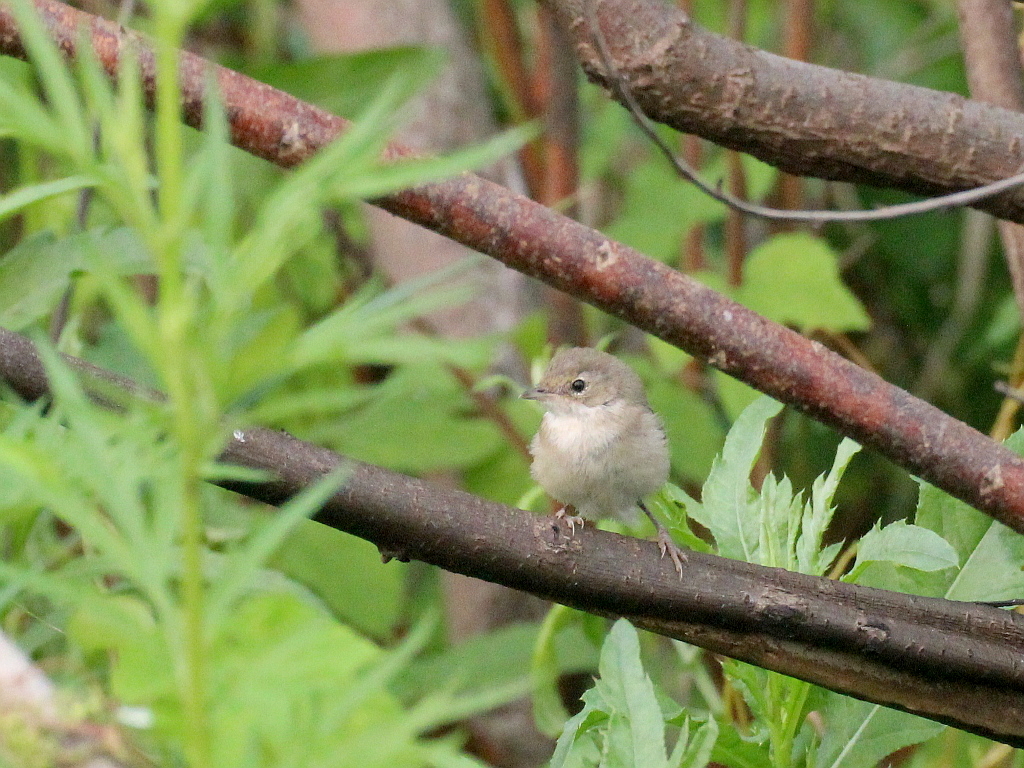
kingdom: Animalia
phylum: Chordata
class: Aves
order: Passeriformes
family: Sylviidae
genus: Sylvia
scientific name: Sylvia communis
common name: Common whitethroat
